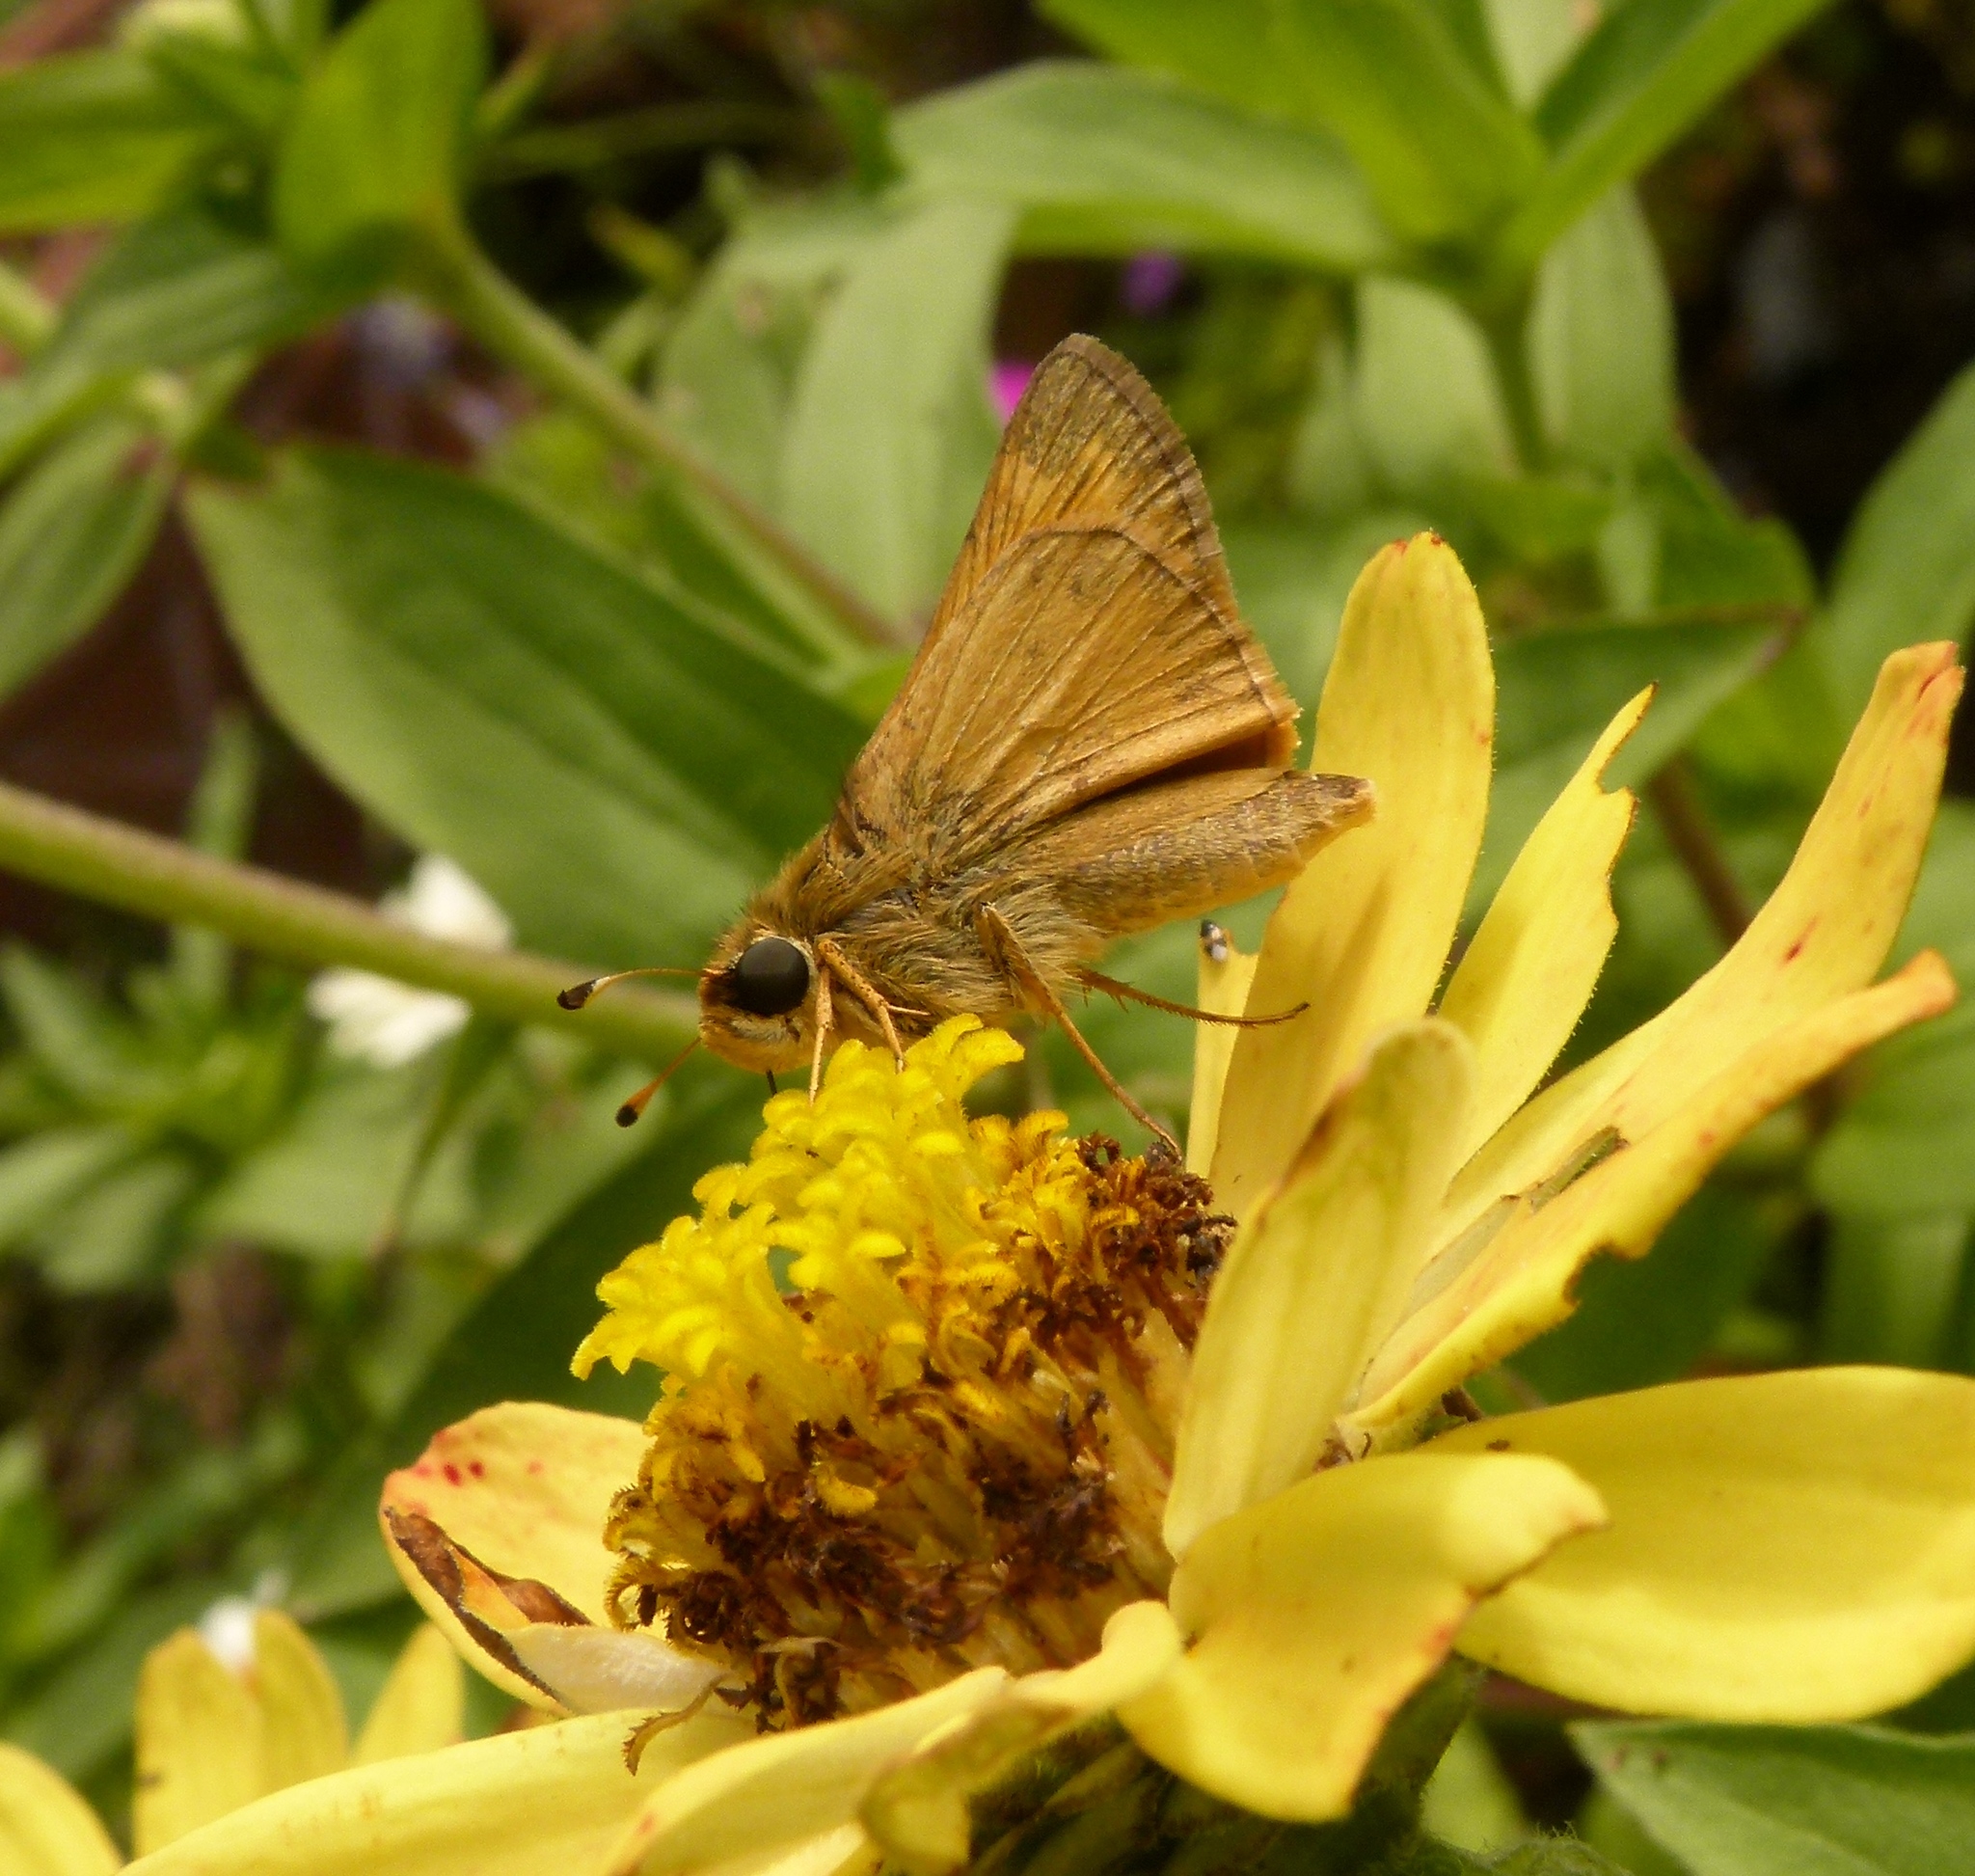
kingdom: Animalia
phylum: Arthropoda
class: Insecta
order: Lepidoptera
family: Hesperiidae
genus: Atalopedes
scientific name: Atalopedes
